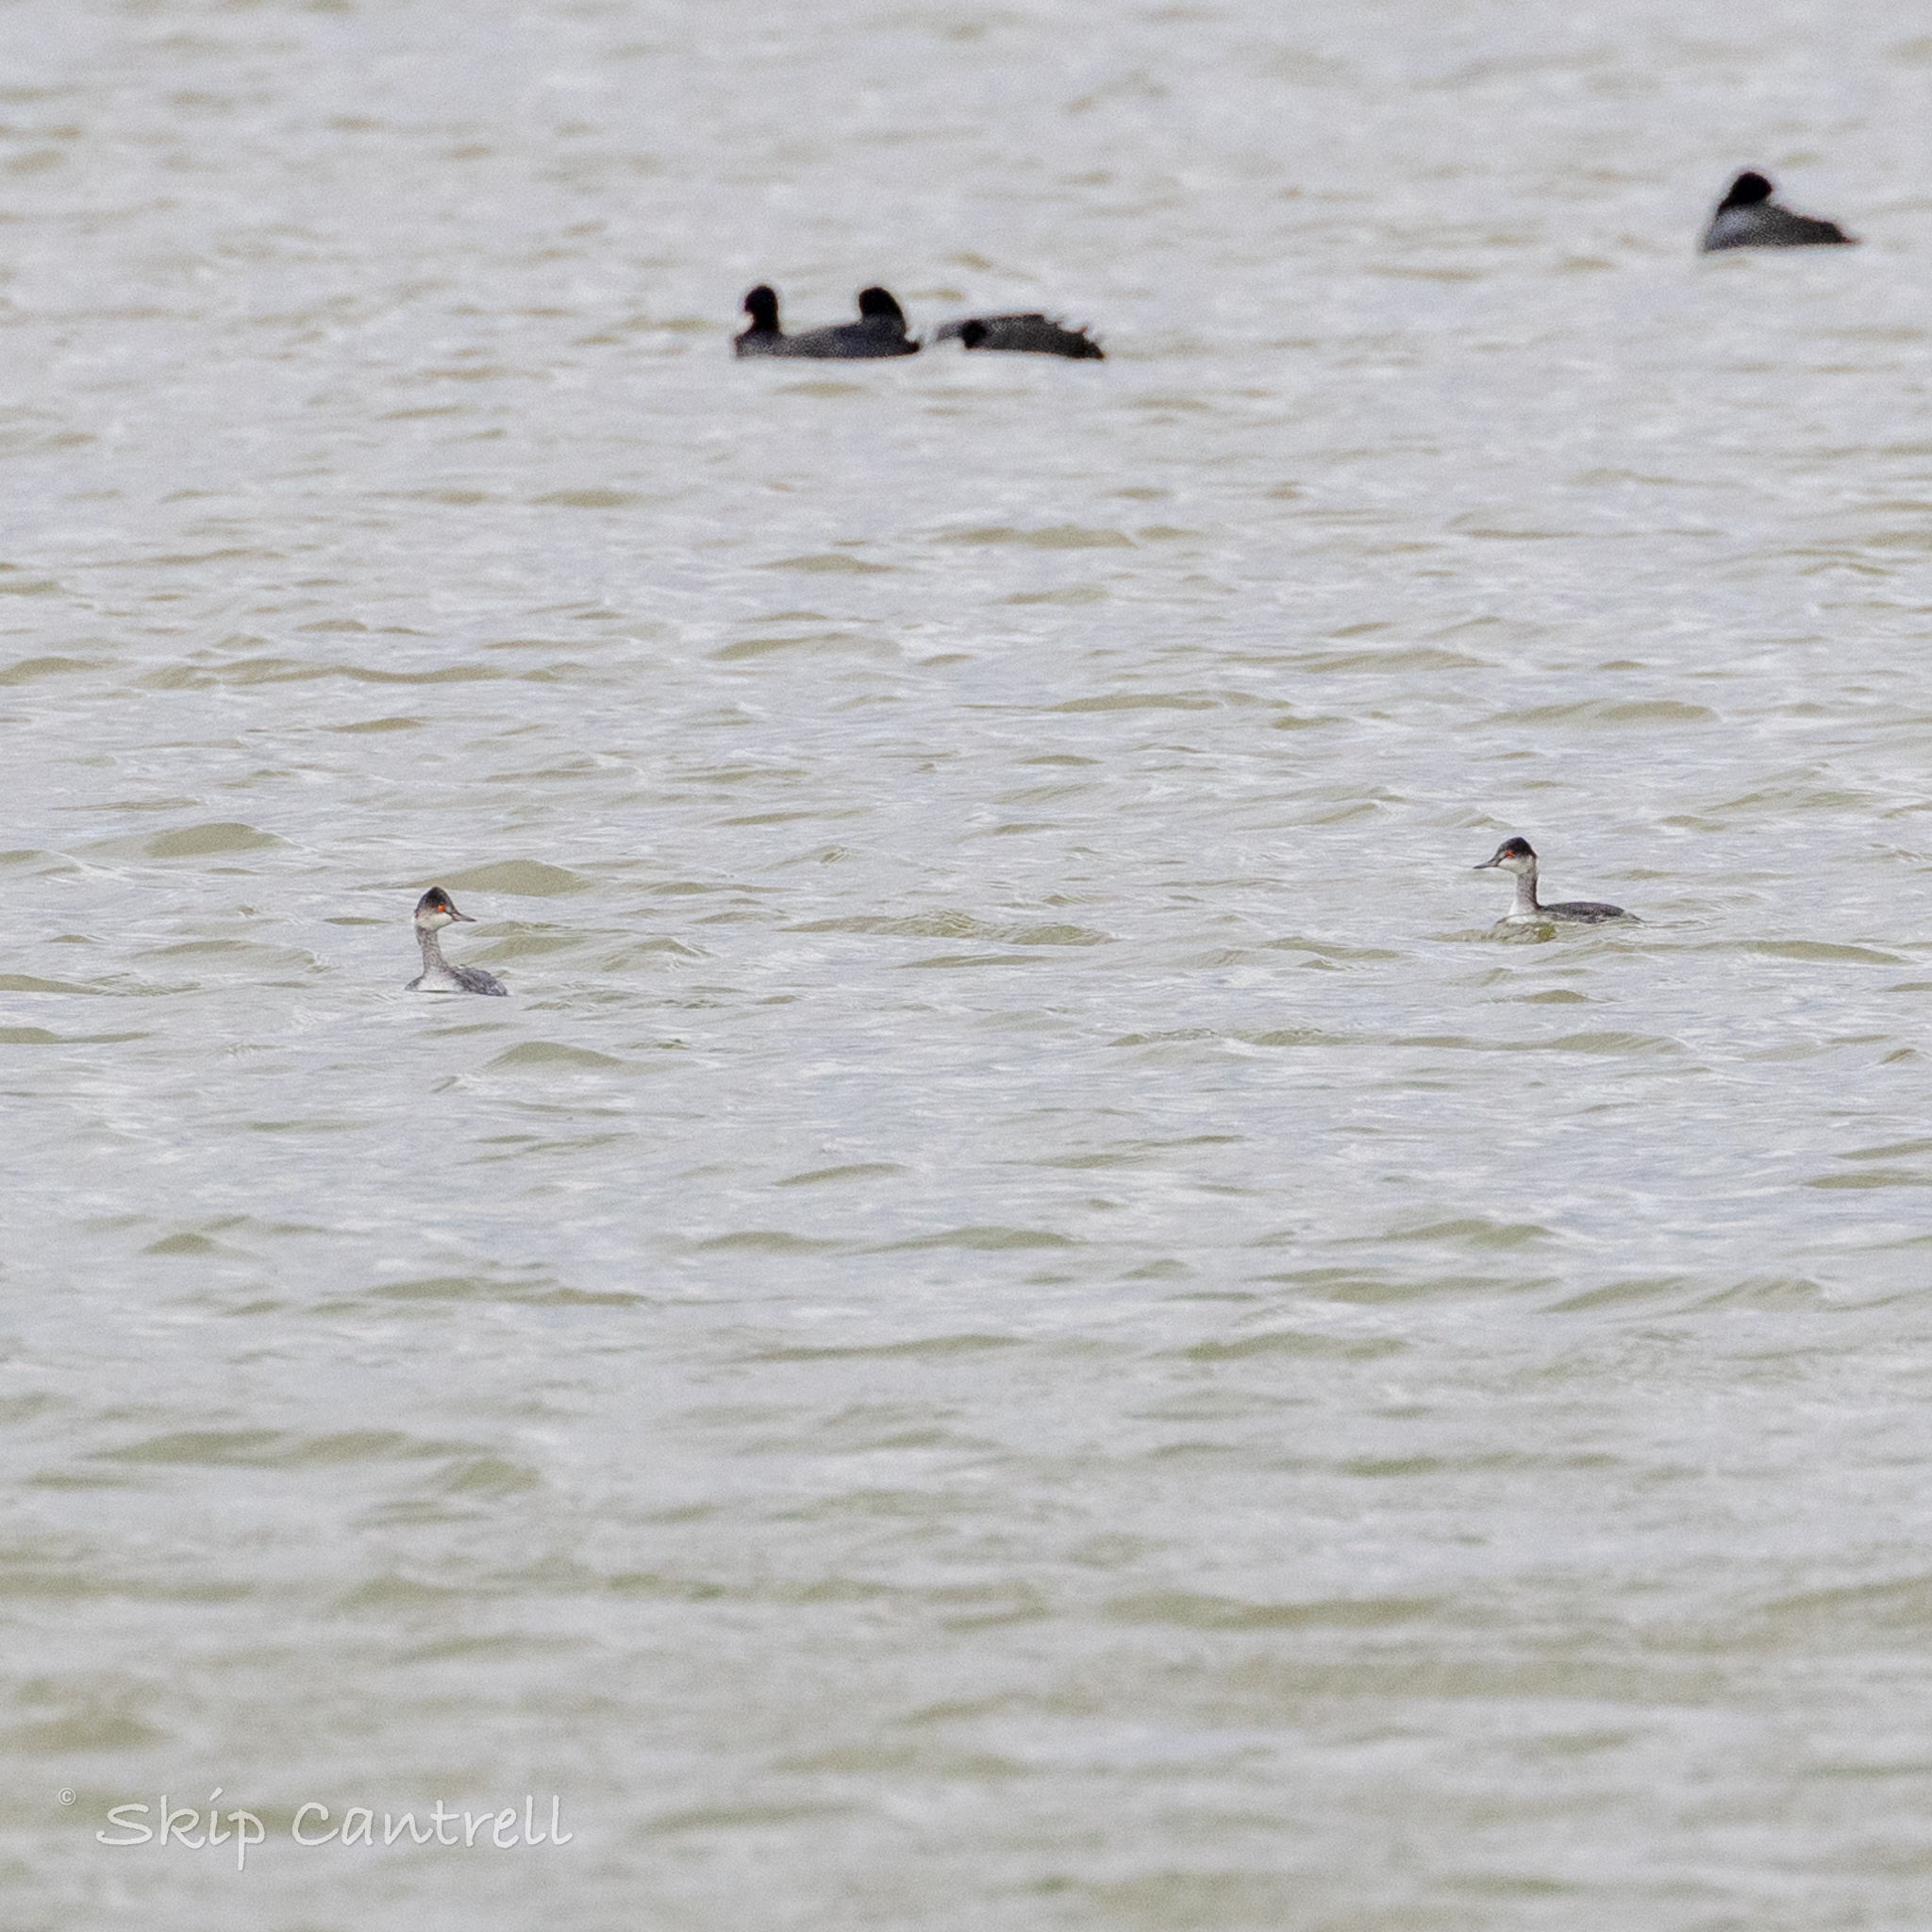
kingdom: Animalia
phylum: Chordata
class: Aves
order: Podicipediformes
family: Podicipedidae
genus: Podiceps
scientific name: Podiceps nigricollis
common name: Black-necked grebe
